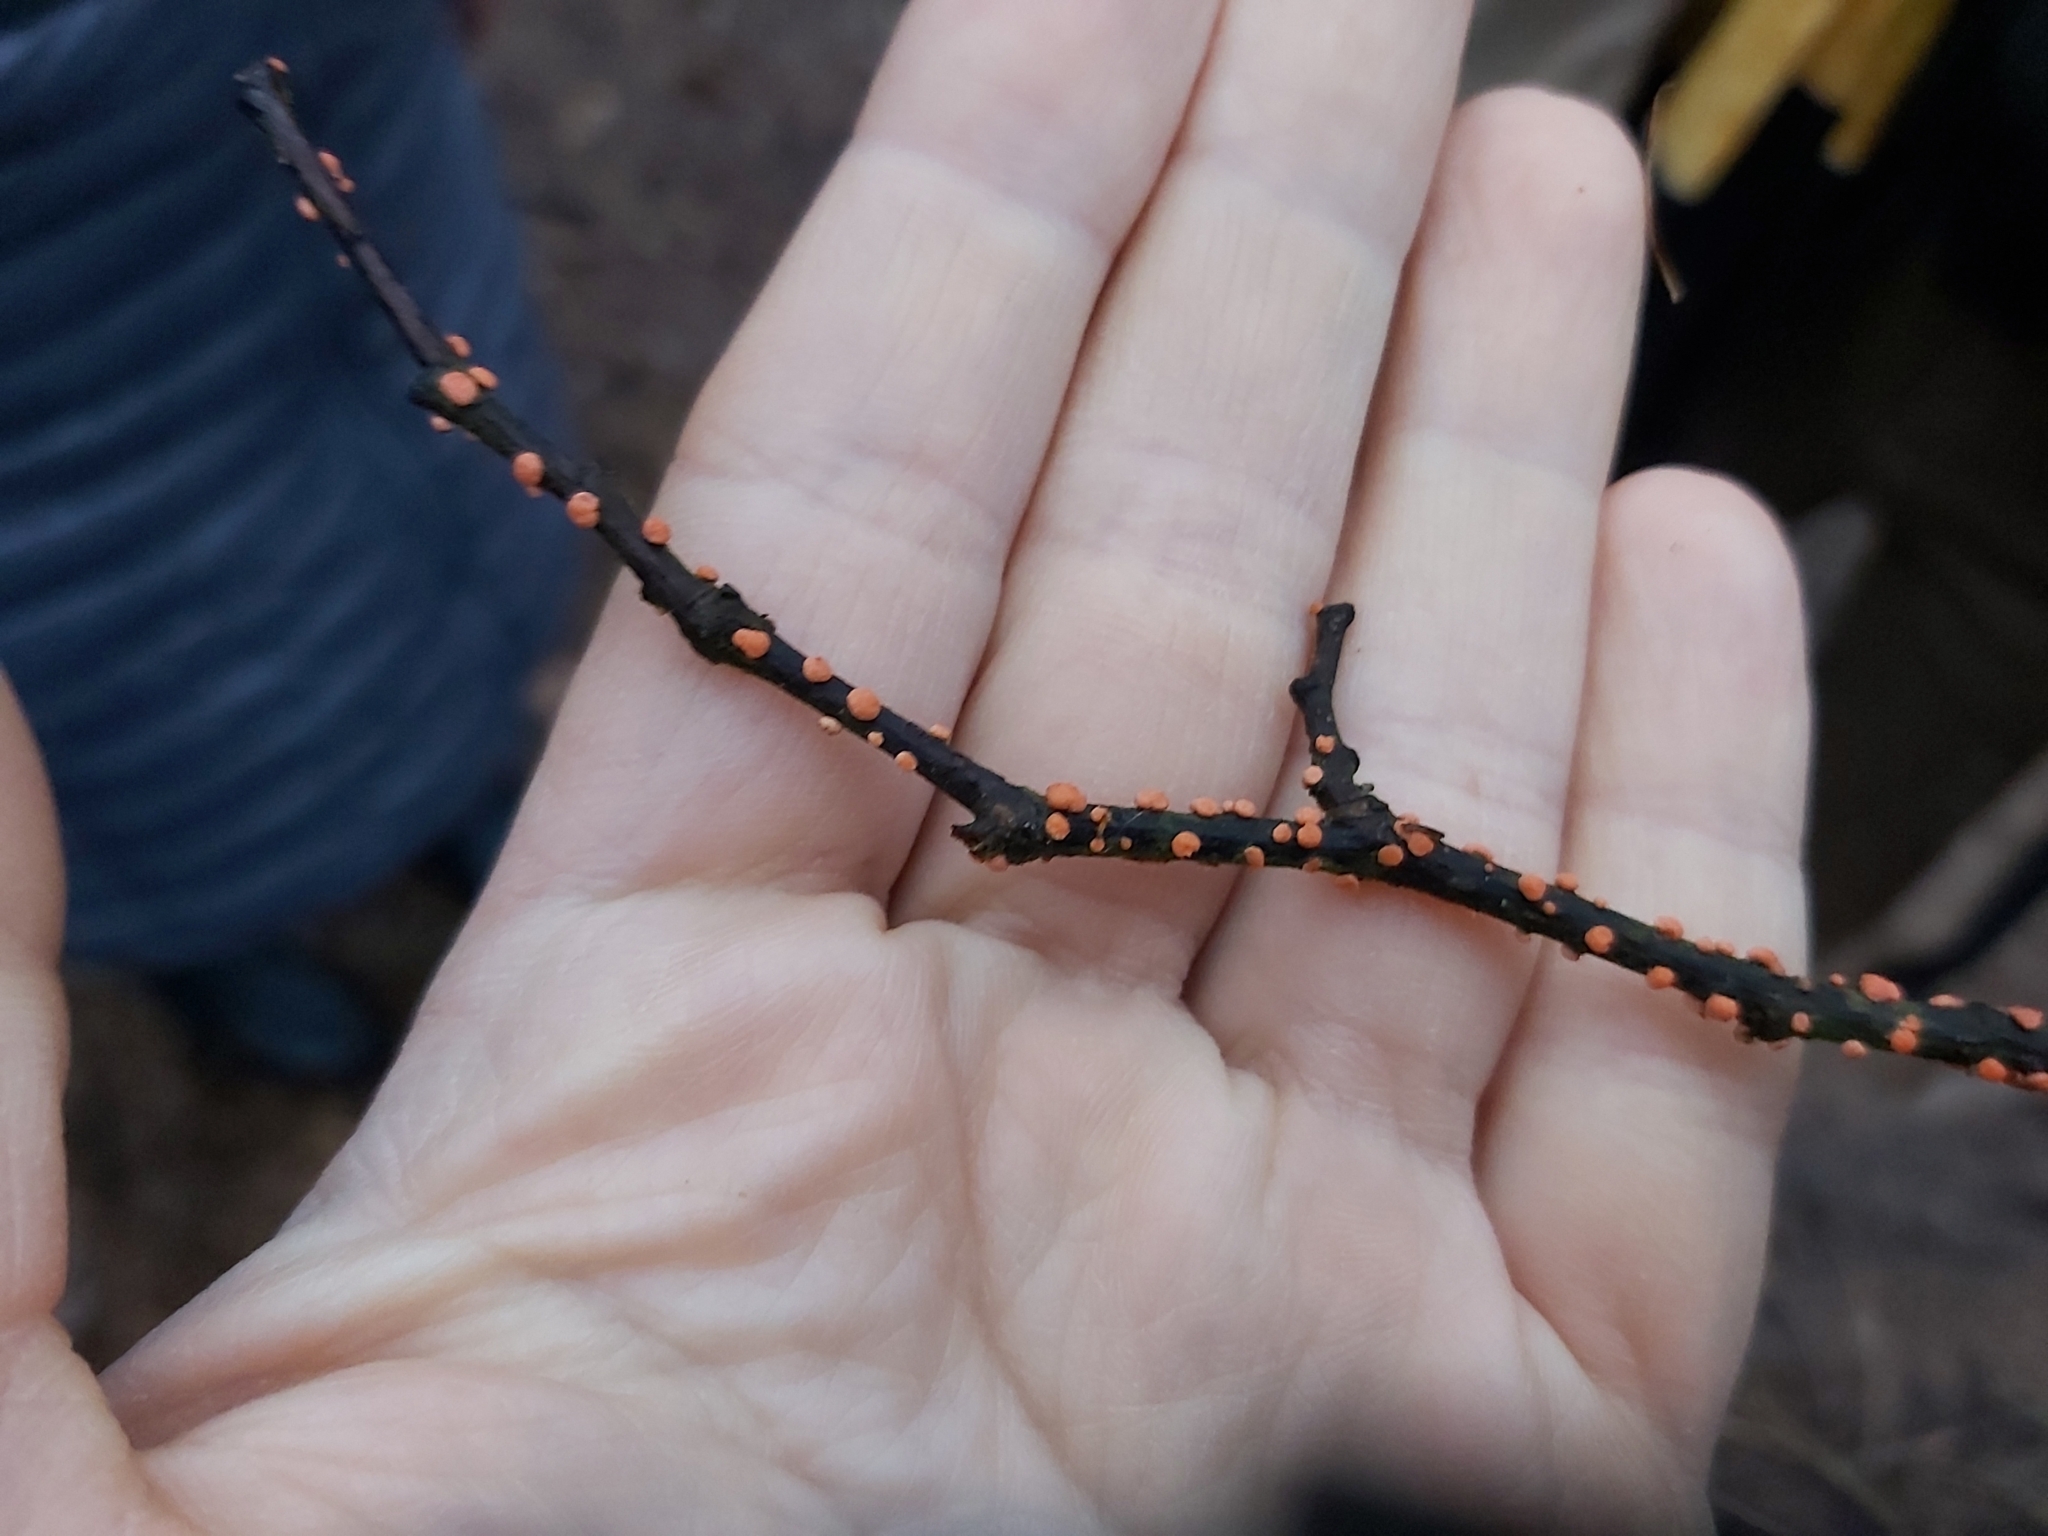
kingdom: Fungi
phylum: Ascomycota
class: Sordariomycetes
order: Hypocreales
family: Nectriaceae
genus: Nectria
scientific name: Nectria cinnabarina
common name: Coral spot
